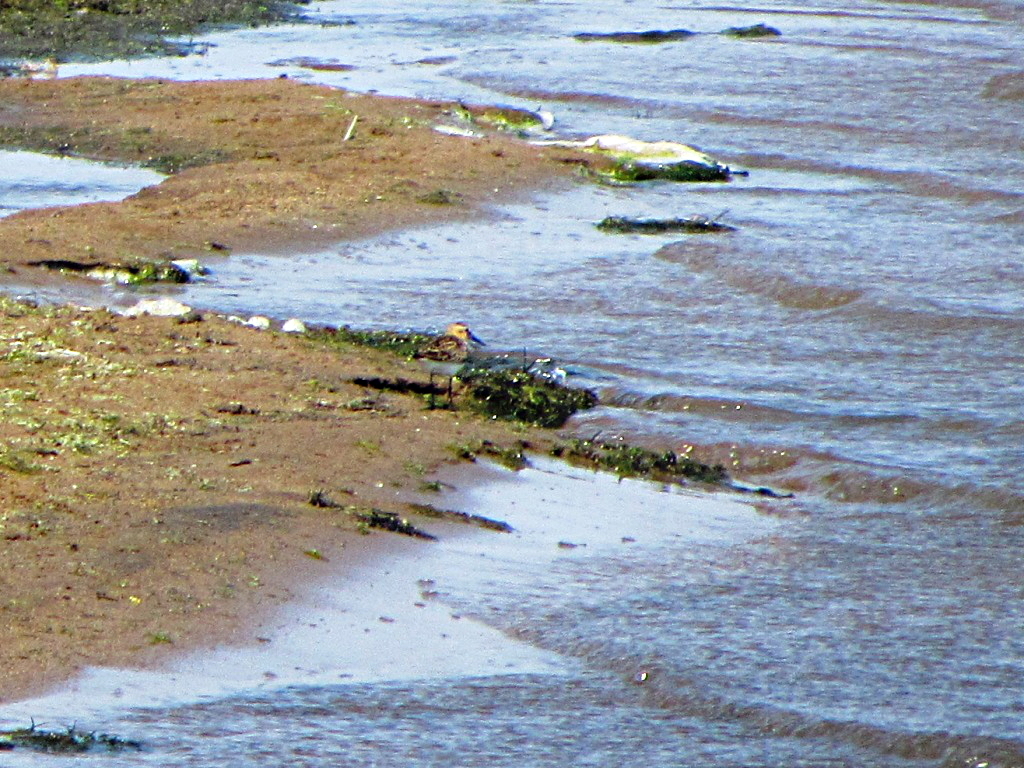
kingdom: Animalia
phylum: Chordata
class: Aves
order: Charadriiformes
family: Scolopacidae
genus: Calidris
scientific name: Calidris minuta
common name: Little stint
